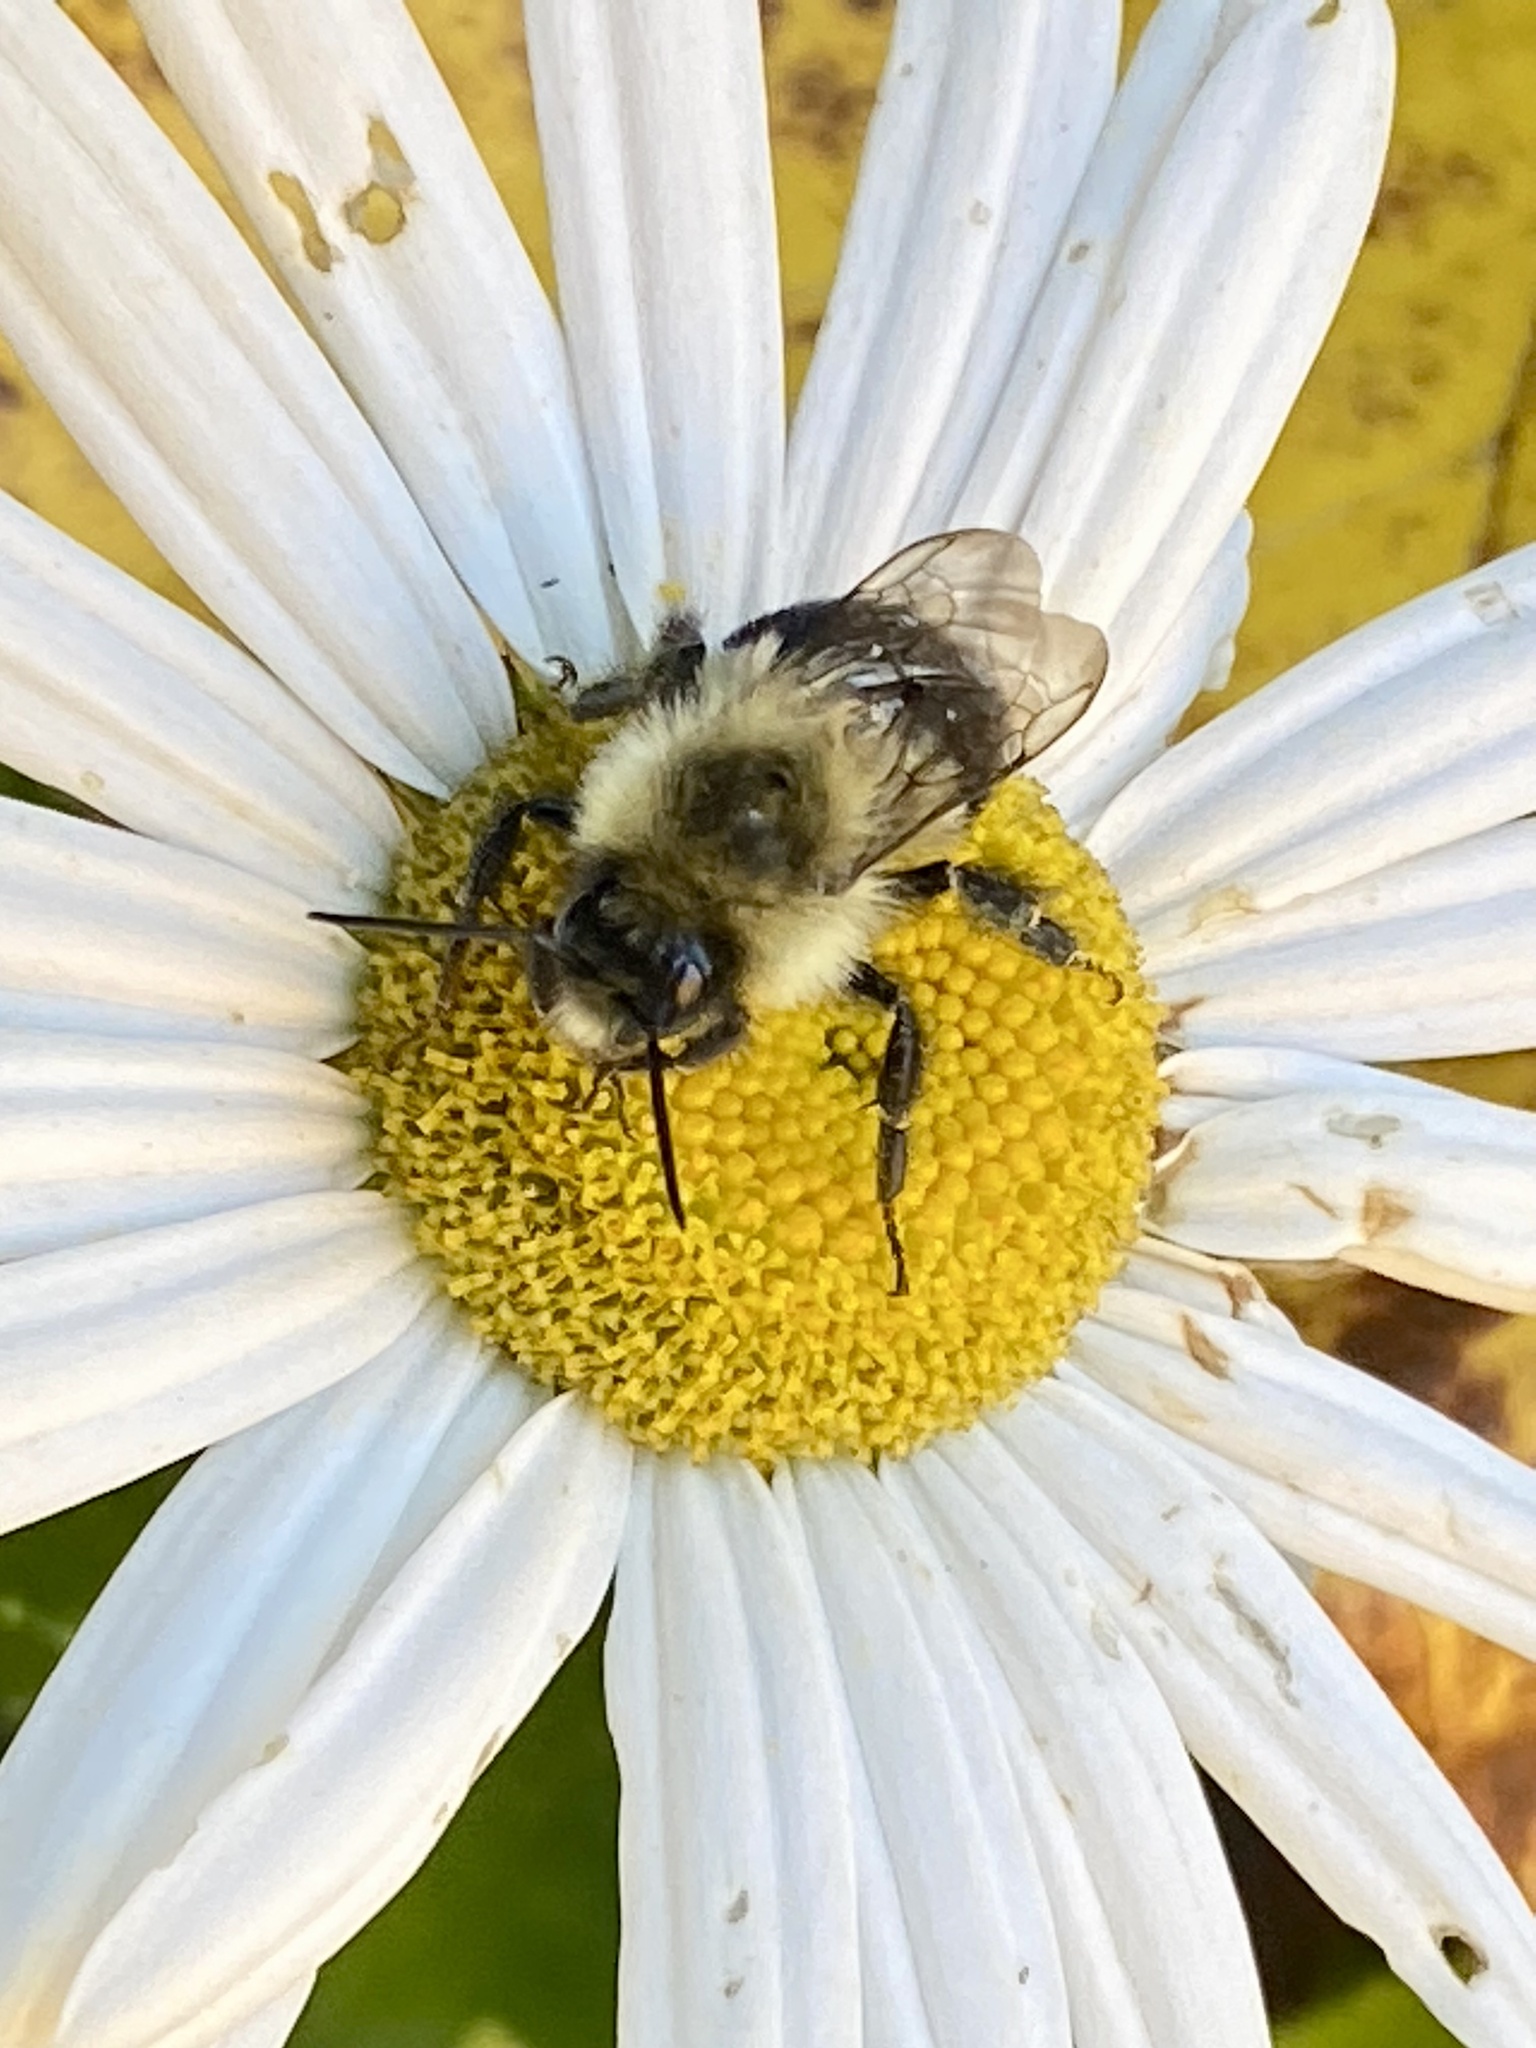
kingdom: Animalia
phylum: Arthropoda
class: Insecta
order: Hymenoptera
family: Apidae
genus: Bombus
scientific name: Bombus impatiens
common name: Common eastern bumble bee
